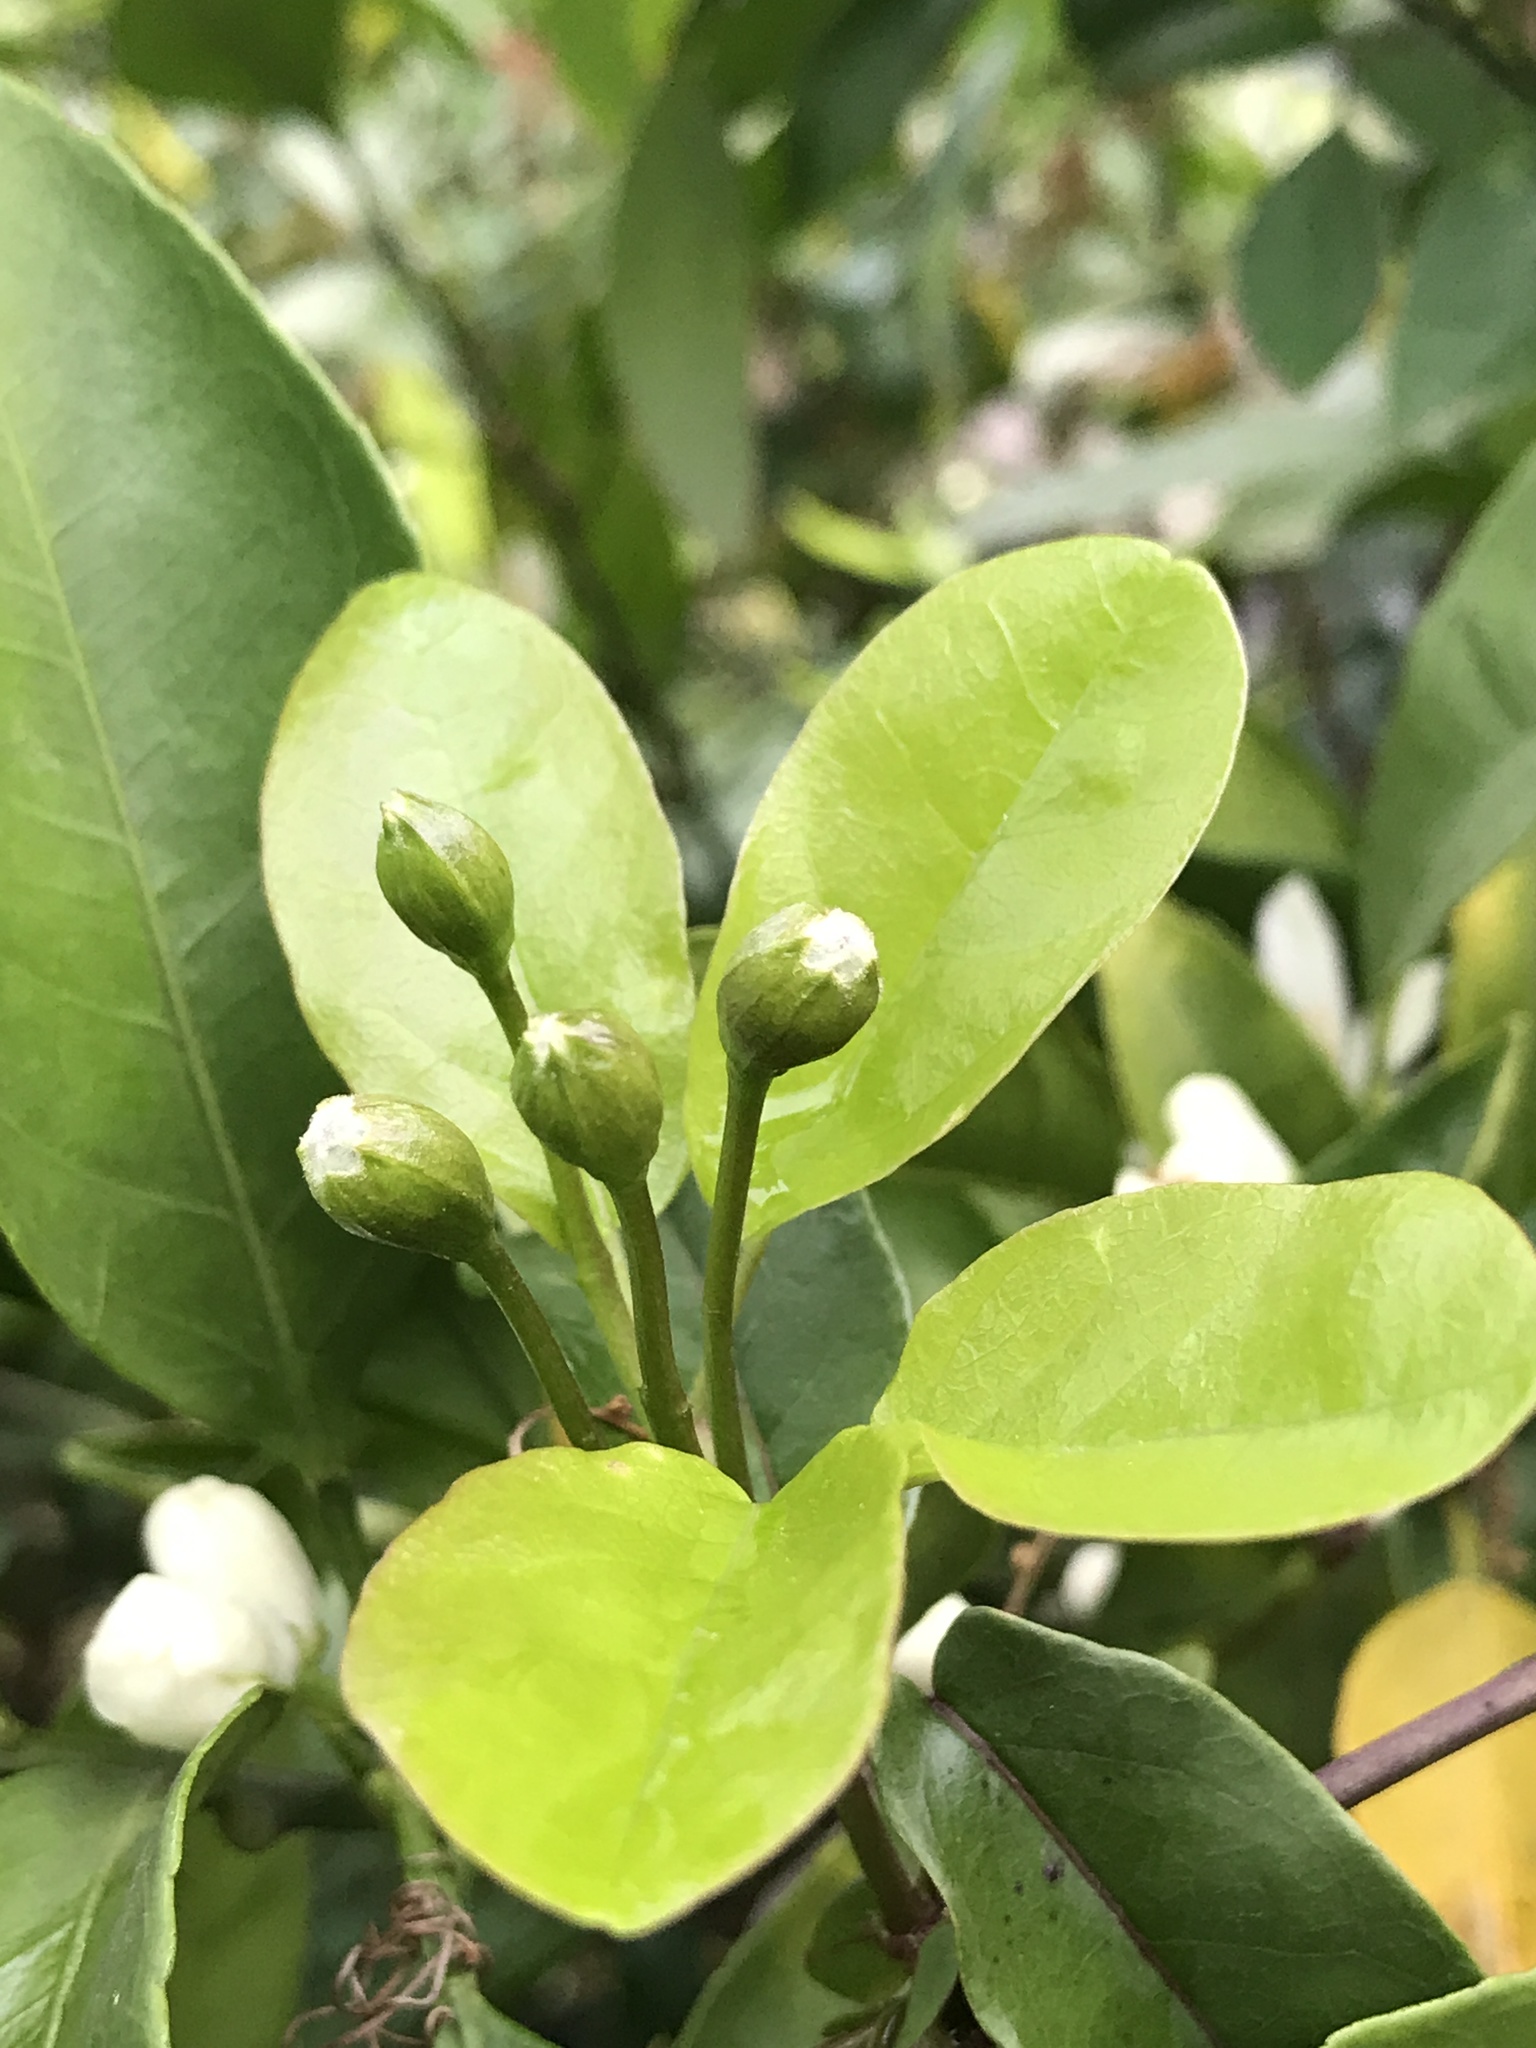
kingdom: Plantae
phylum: Tracheophyta
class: Magnoliopsida
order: Lamiales
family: Bignoniaceae
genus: Bignonia
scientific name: Bignonia capreolata
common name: Crossvine
